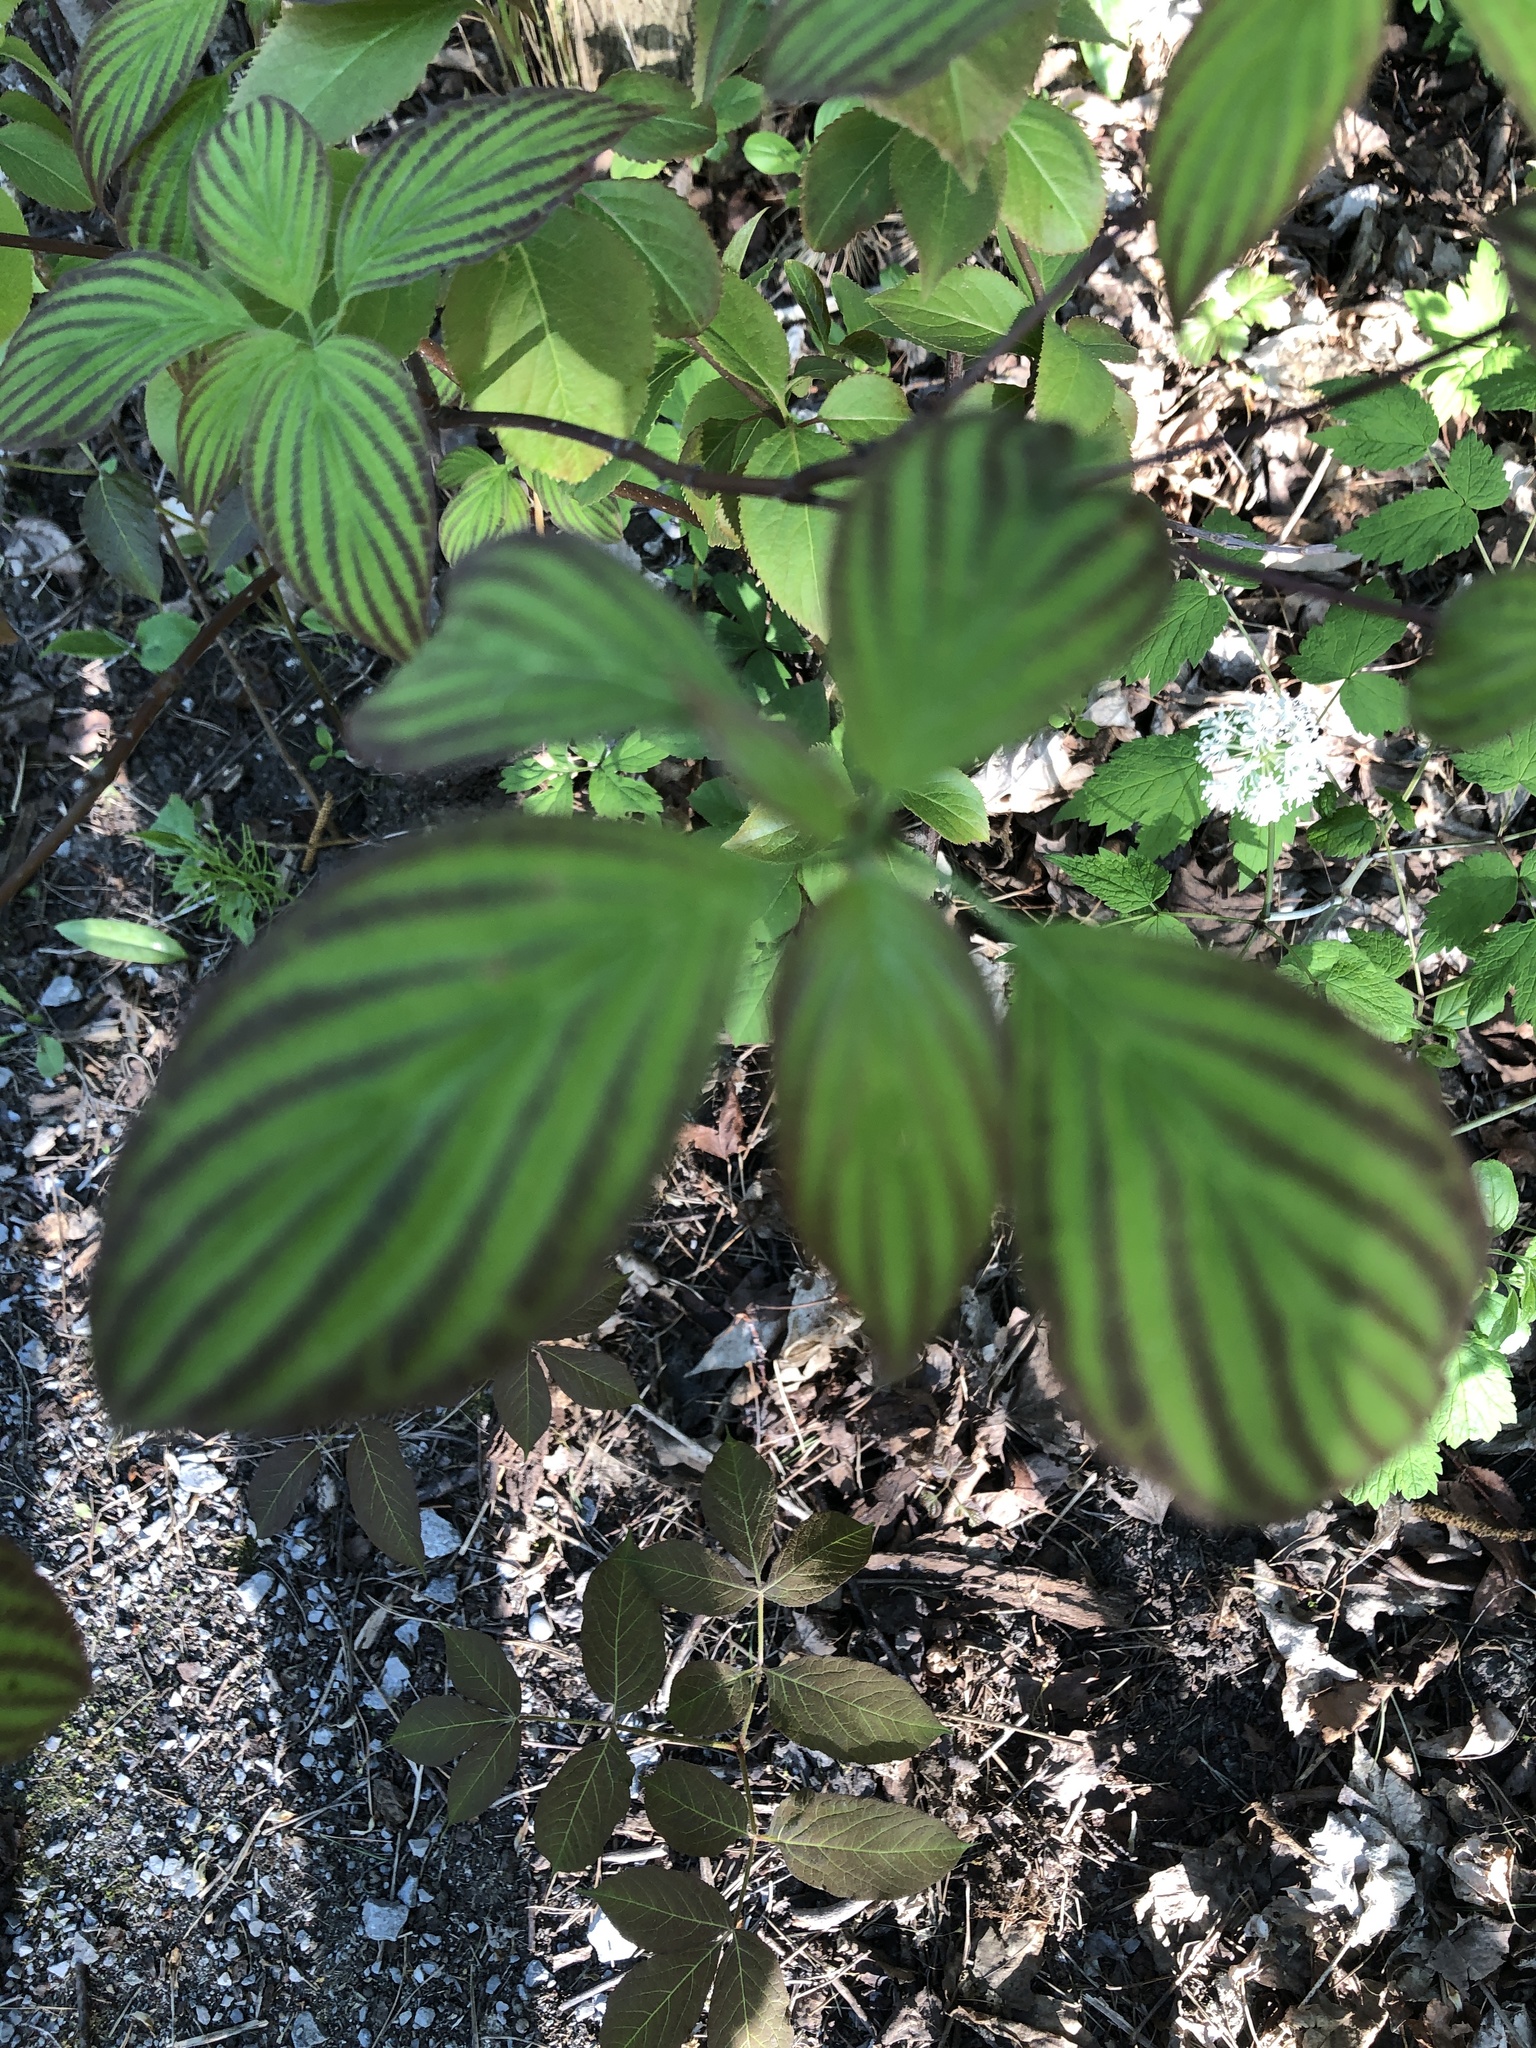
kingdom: Plantae
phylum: Tracheophyta
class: Magnoliopsida
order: Cornales
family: Cornaceae
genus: Cornus
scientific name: Cornus alternifolia
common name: Pagoda dogwood
